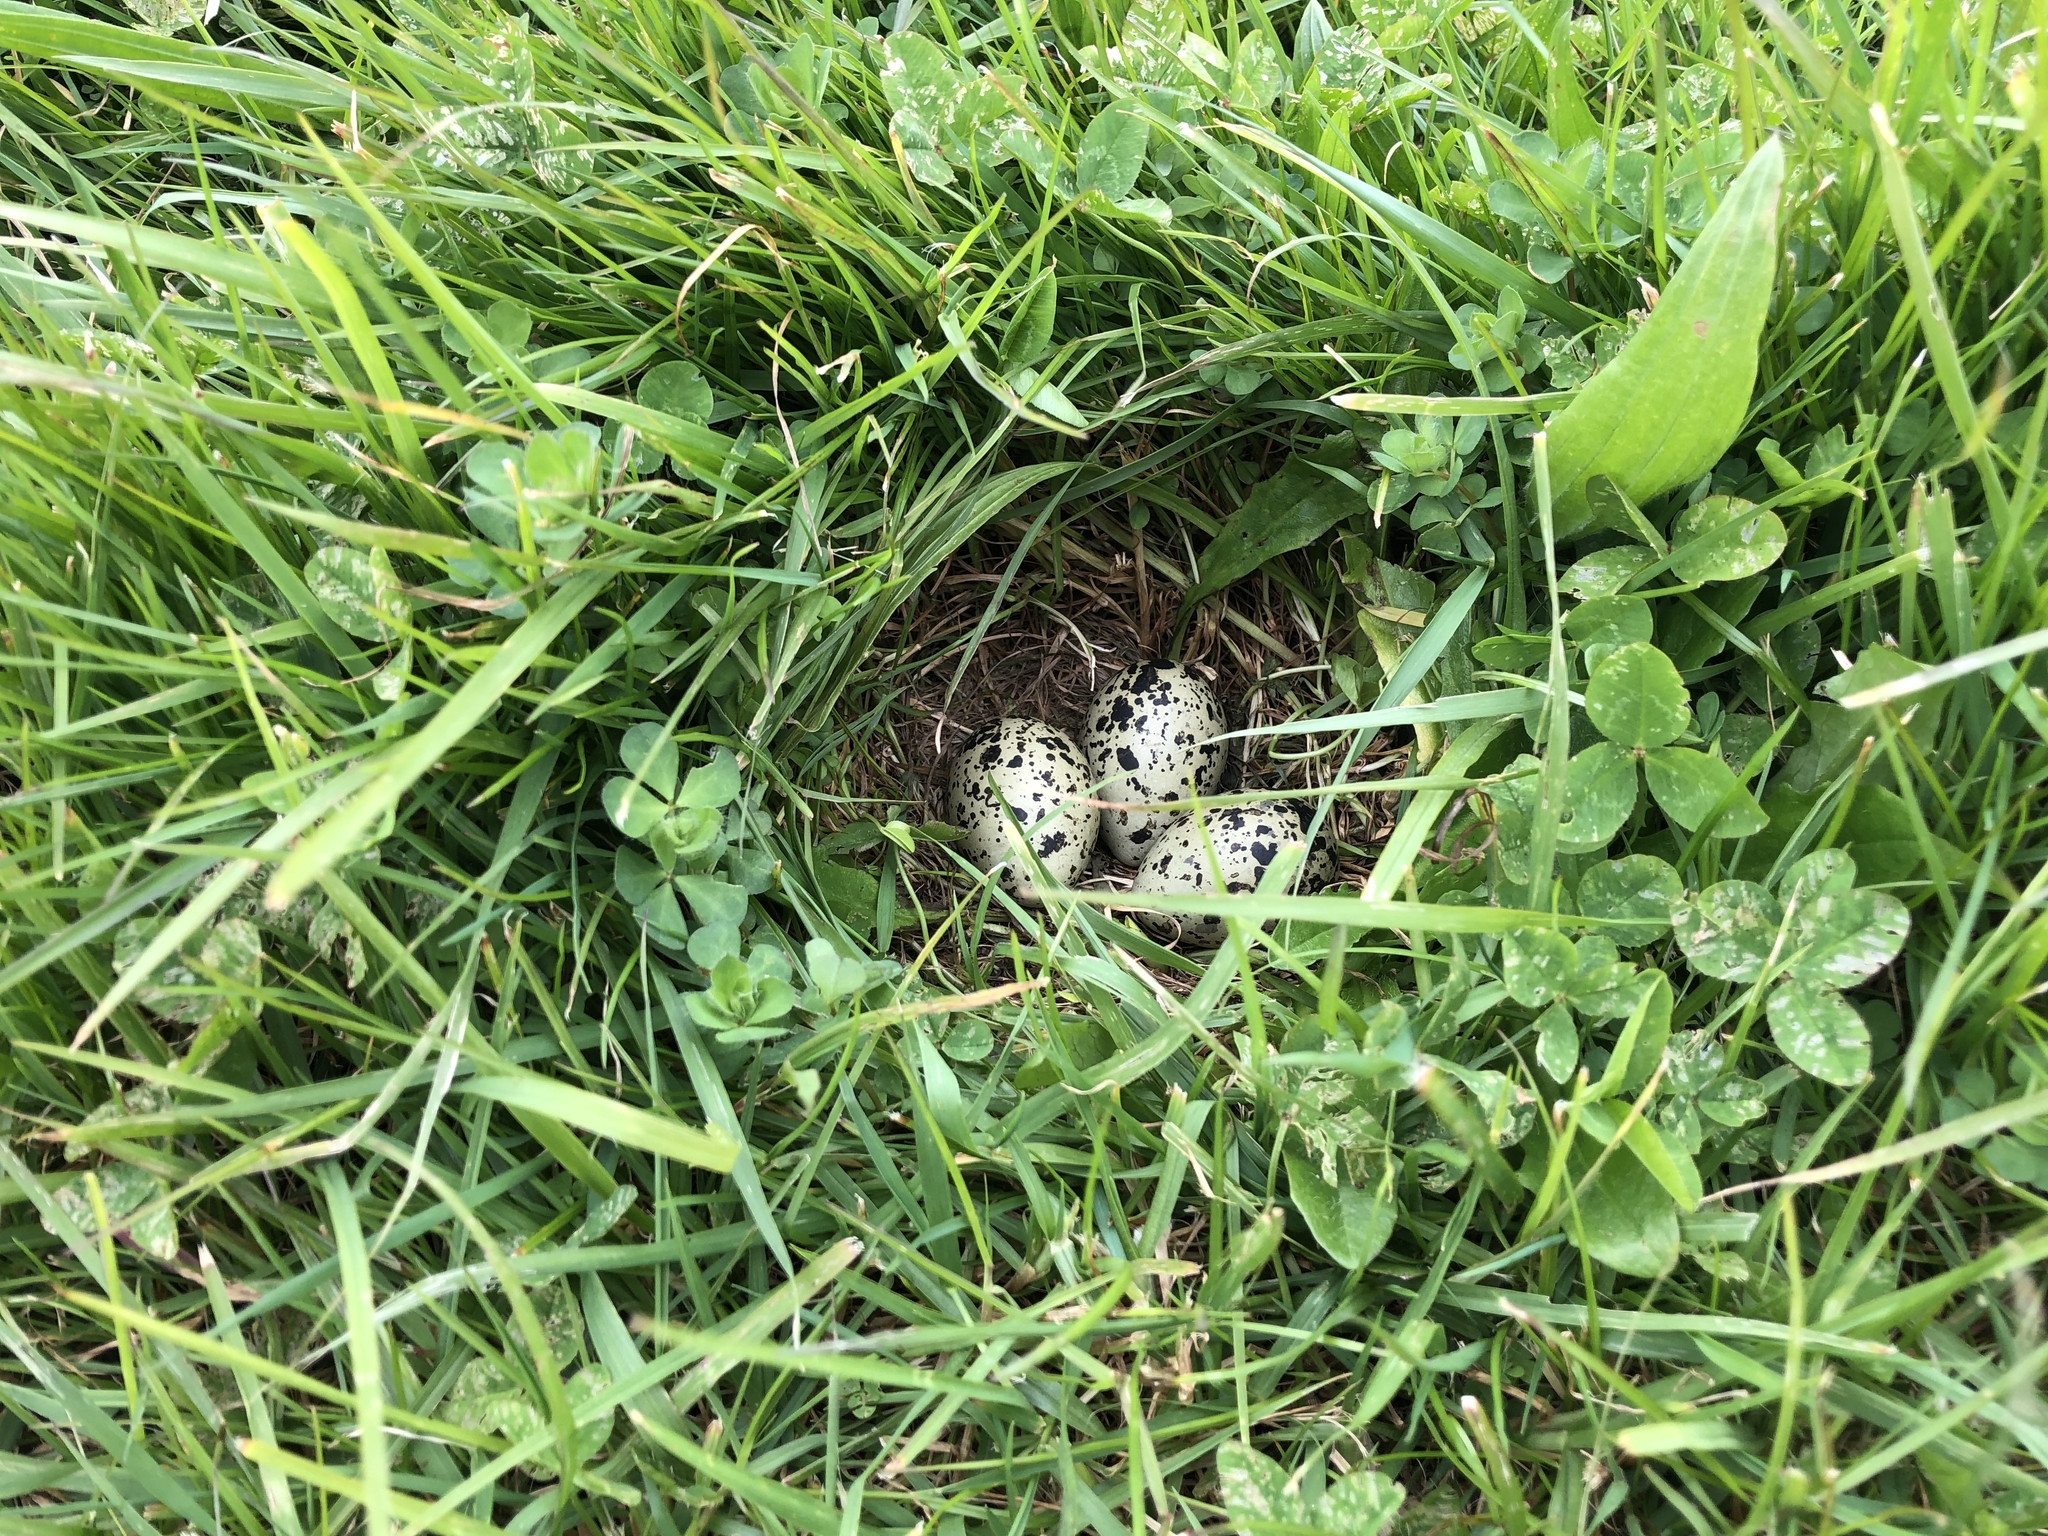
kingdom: Animalia
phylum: Chordata
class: Aves
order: Charadriiformes
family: Charadriidae
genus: Anarhynchus
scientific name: Anarhynchus
